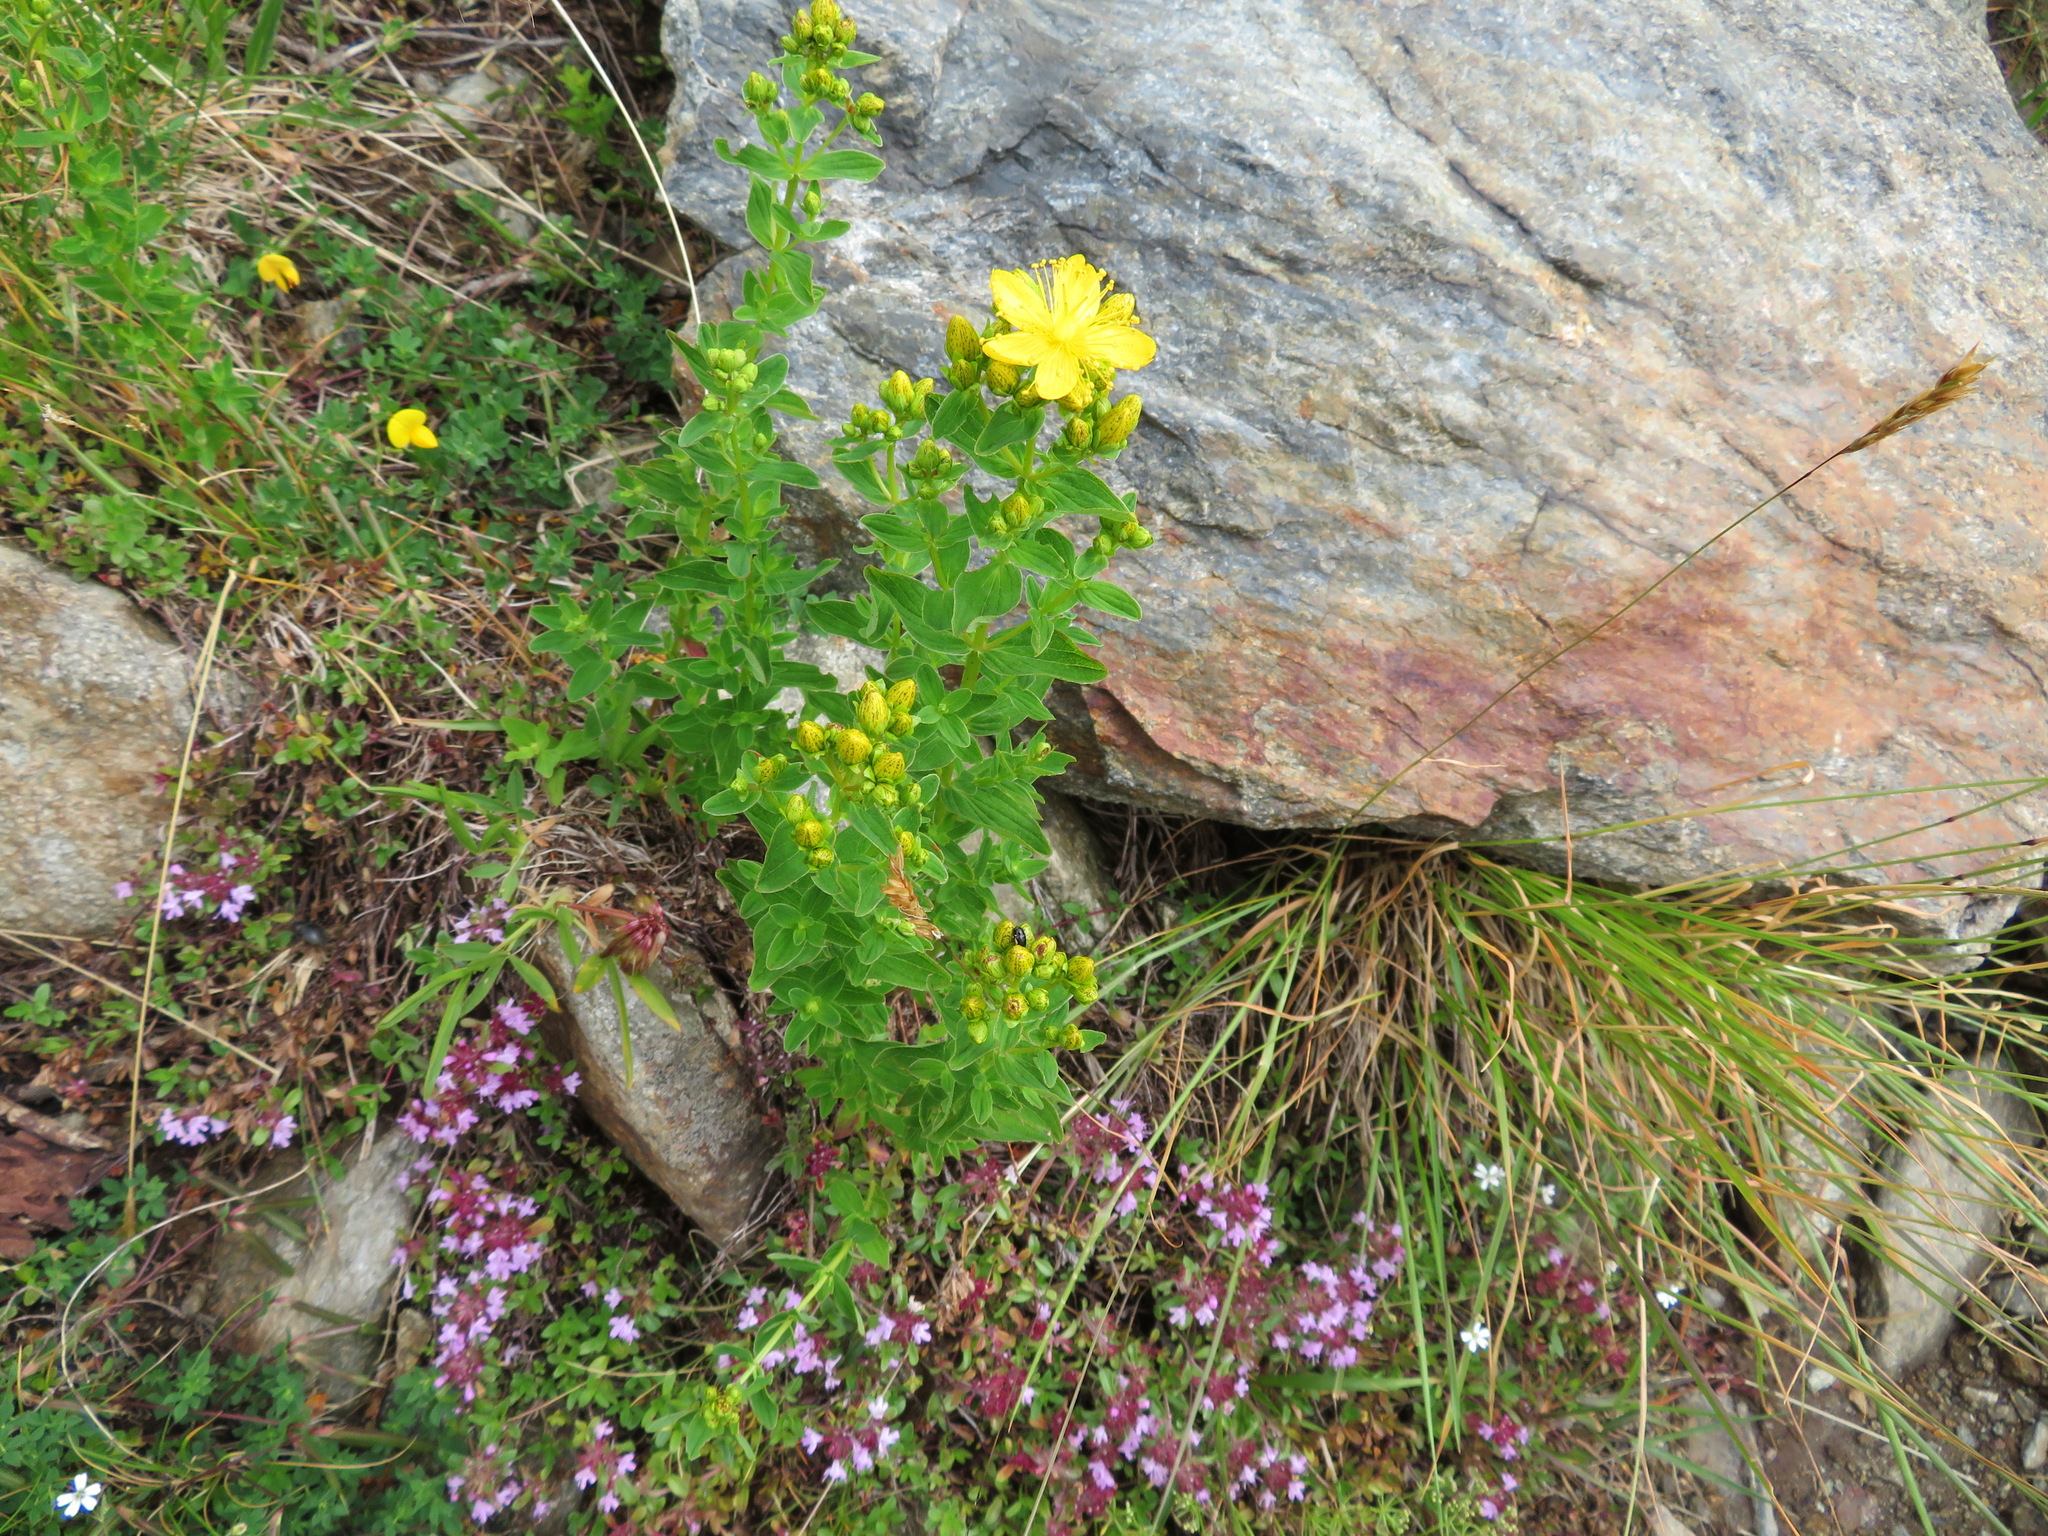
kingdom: Plantae
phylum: Tracheophyta
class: Magnoliopsida
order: Malpighiales
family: Hypericaceae
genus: Hypericum
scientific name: Hypericum maculatum
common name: Imperforate st. john's-wort
